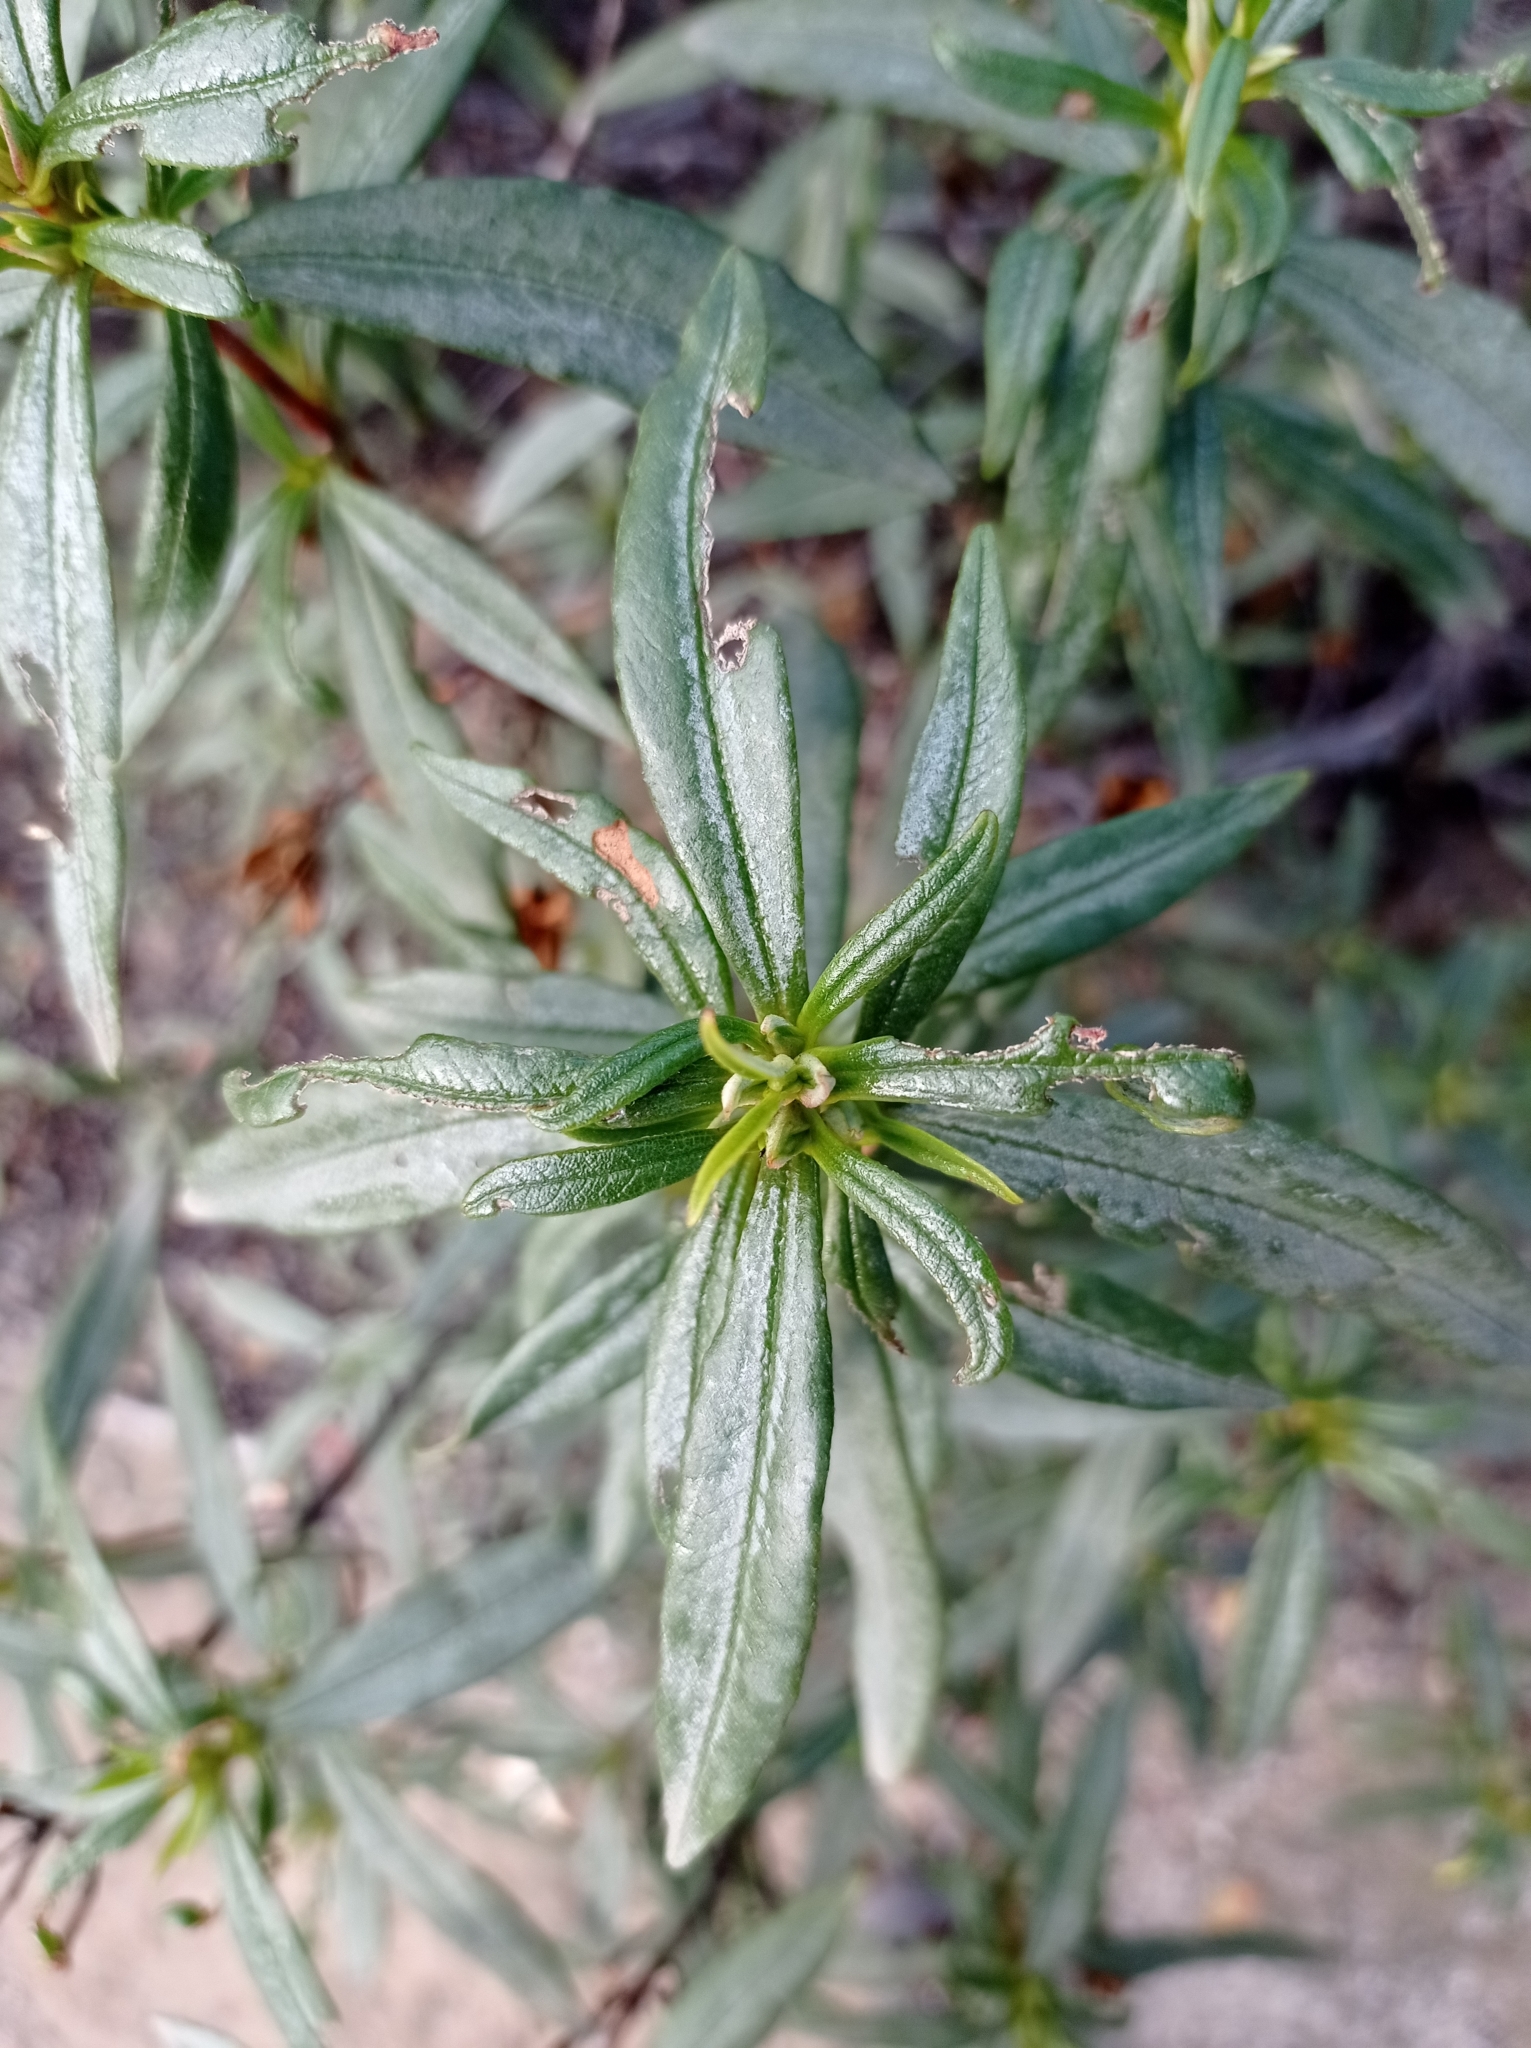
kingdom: Plantae
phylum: Tracheophyta
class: Magnoliopsida
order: Malvales
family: Cistaceae
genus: Cistus
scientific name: Cistus ladanifer
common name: Common gum cistus
